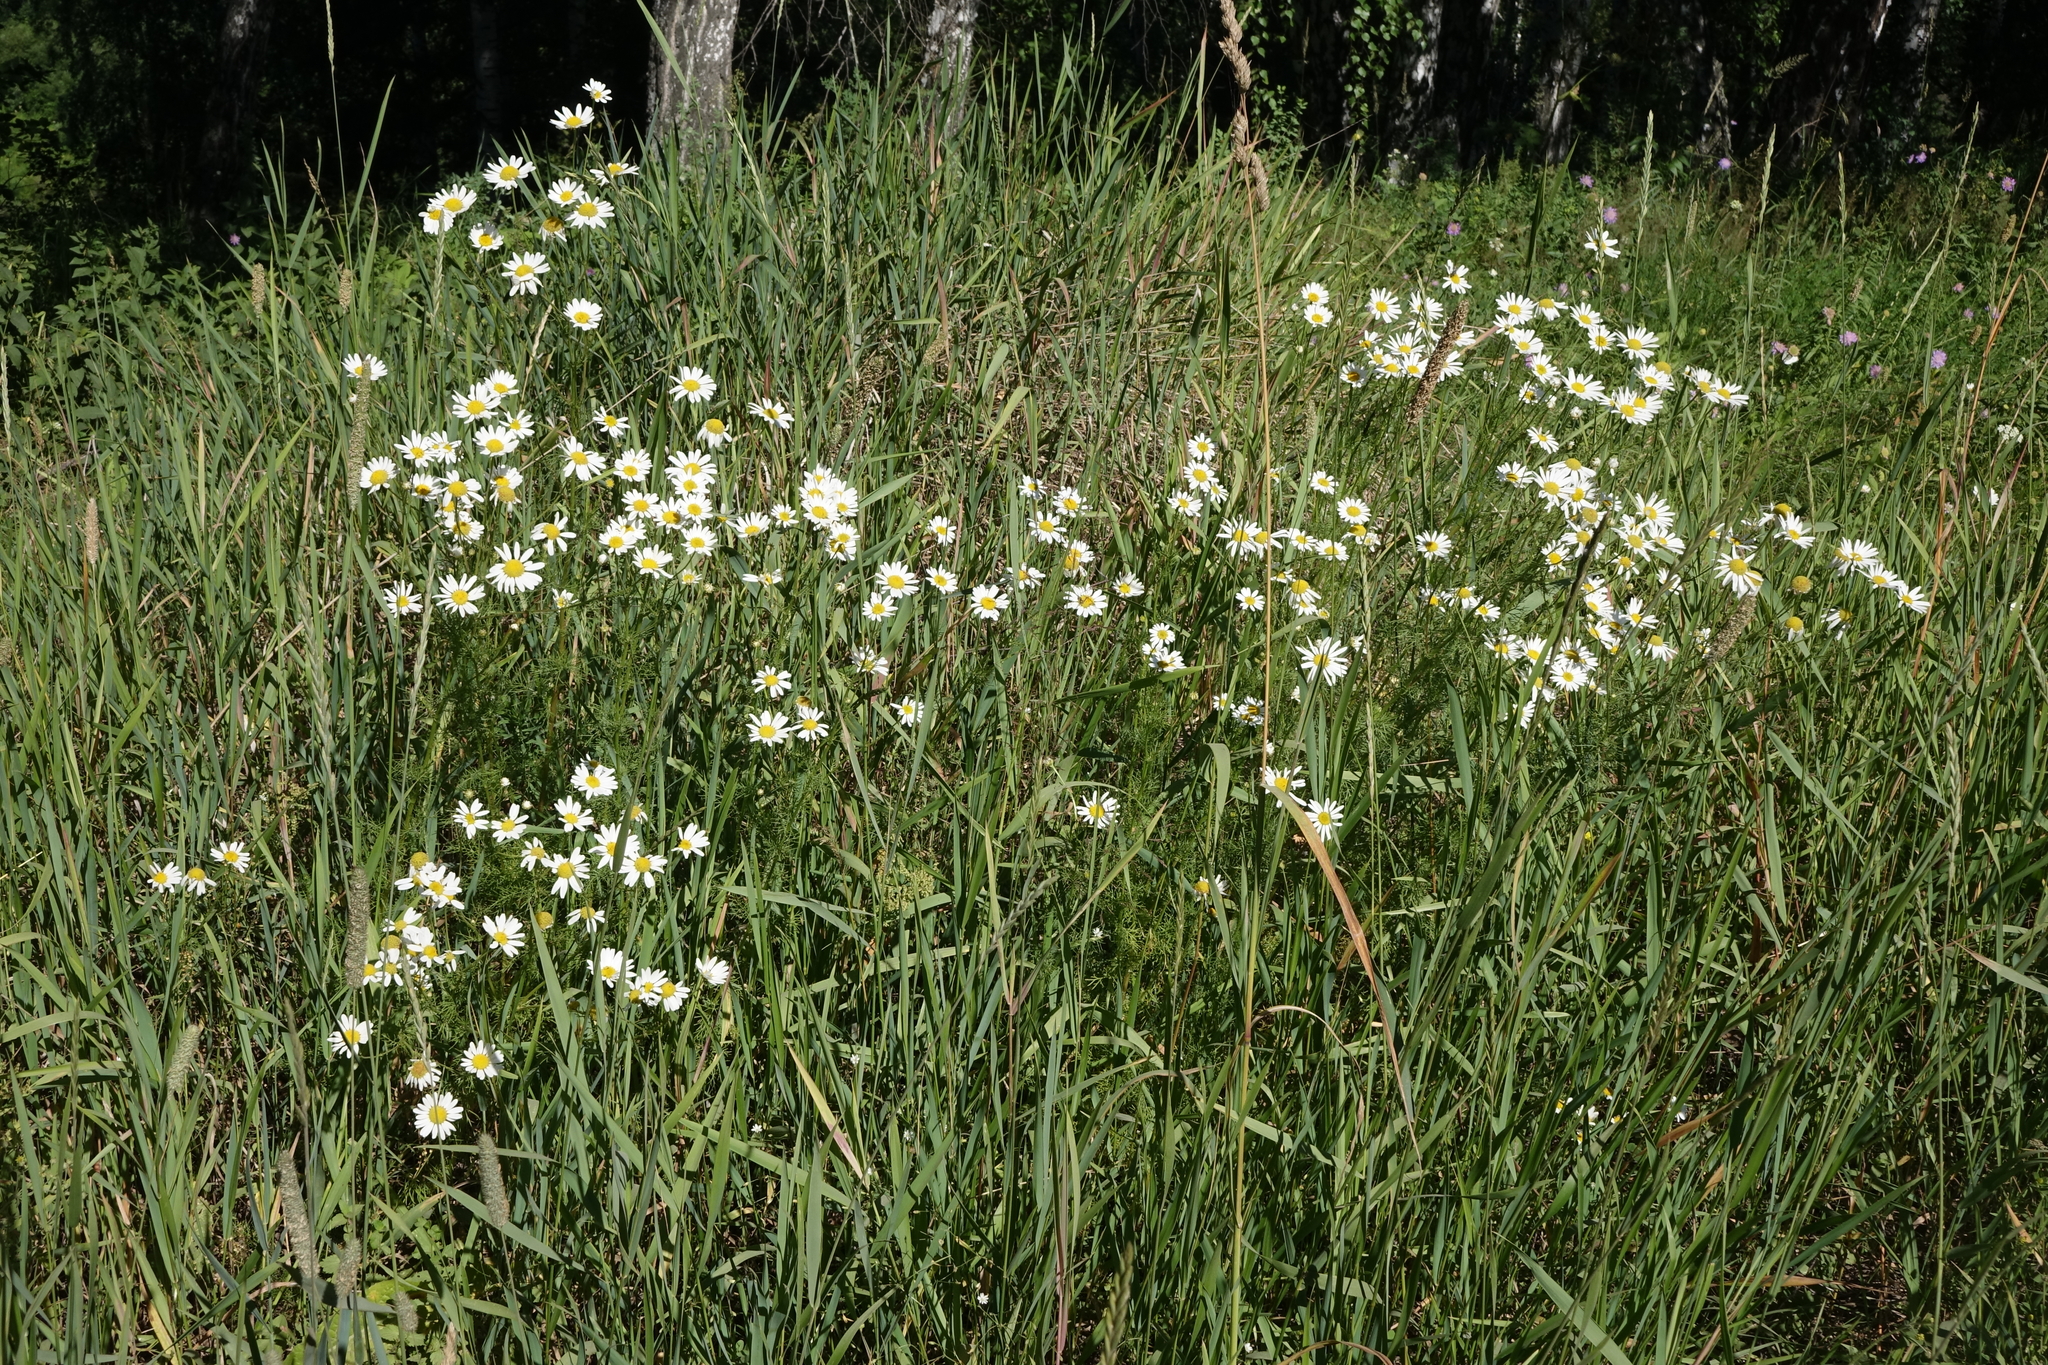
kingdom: Plantae
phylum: Tracheophyta
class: Magnoliopsida
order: Asterales
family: Asteraceae
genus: Tripleurospermum
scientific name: Tripleurospermum inodorum
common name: Scentless mayweed
